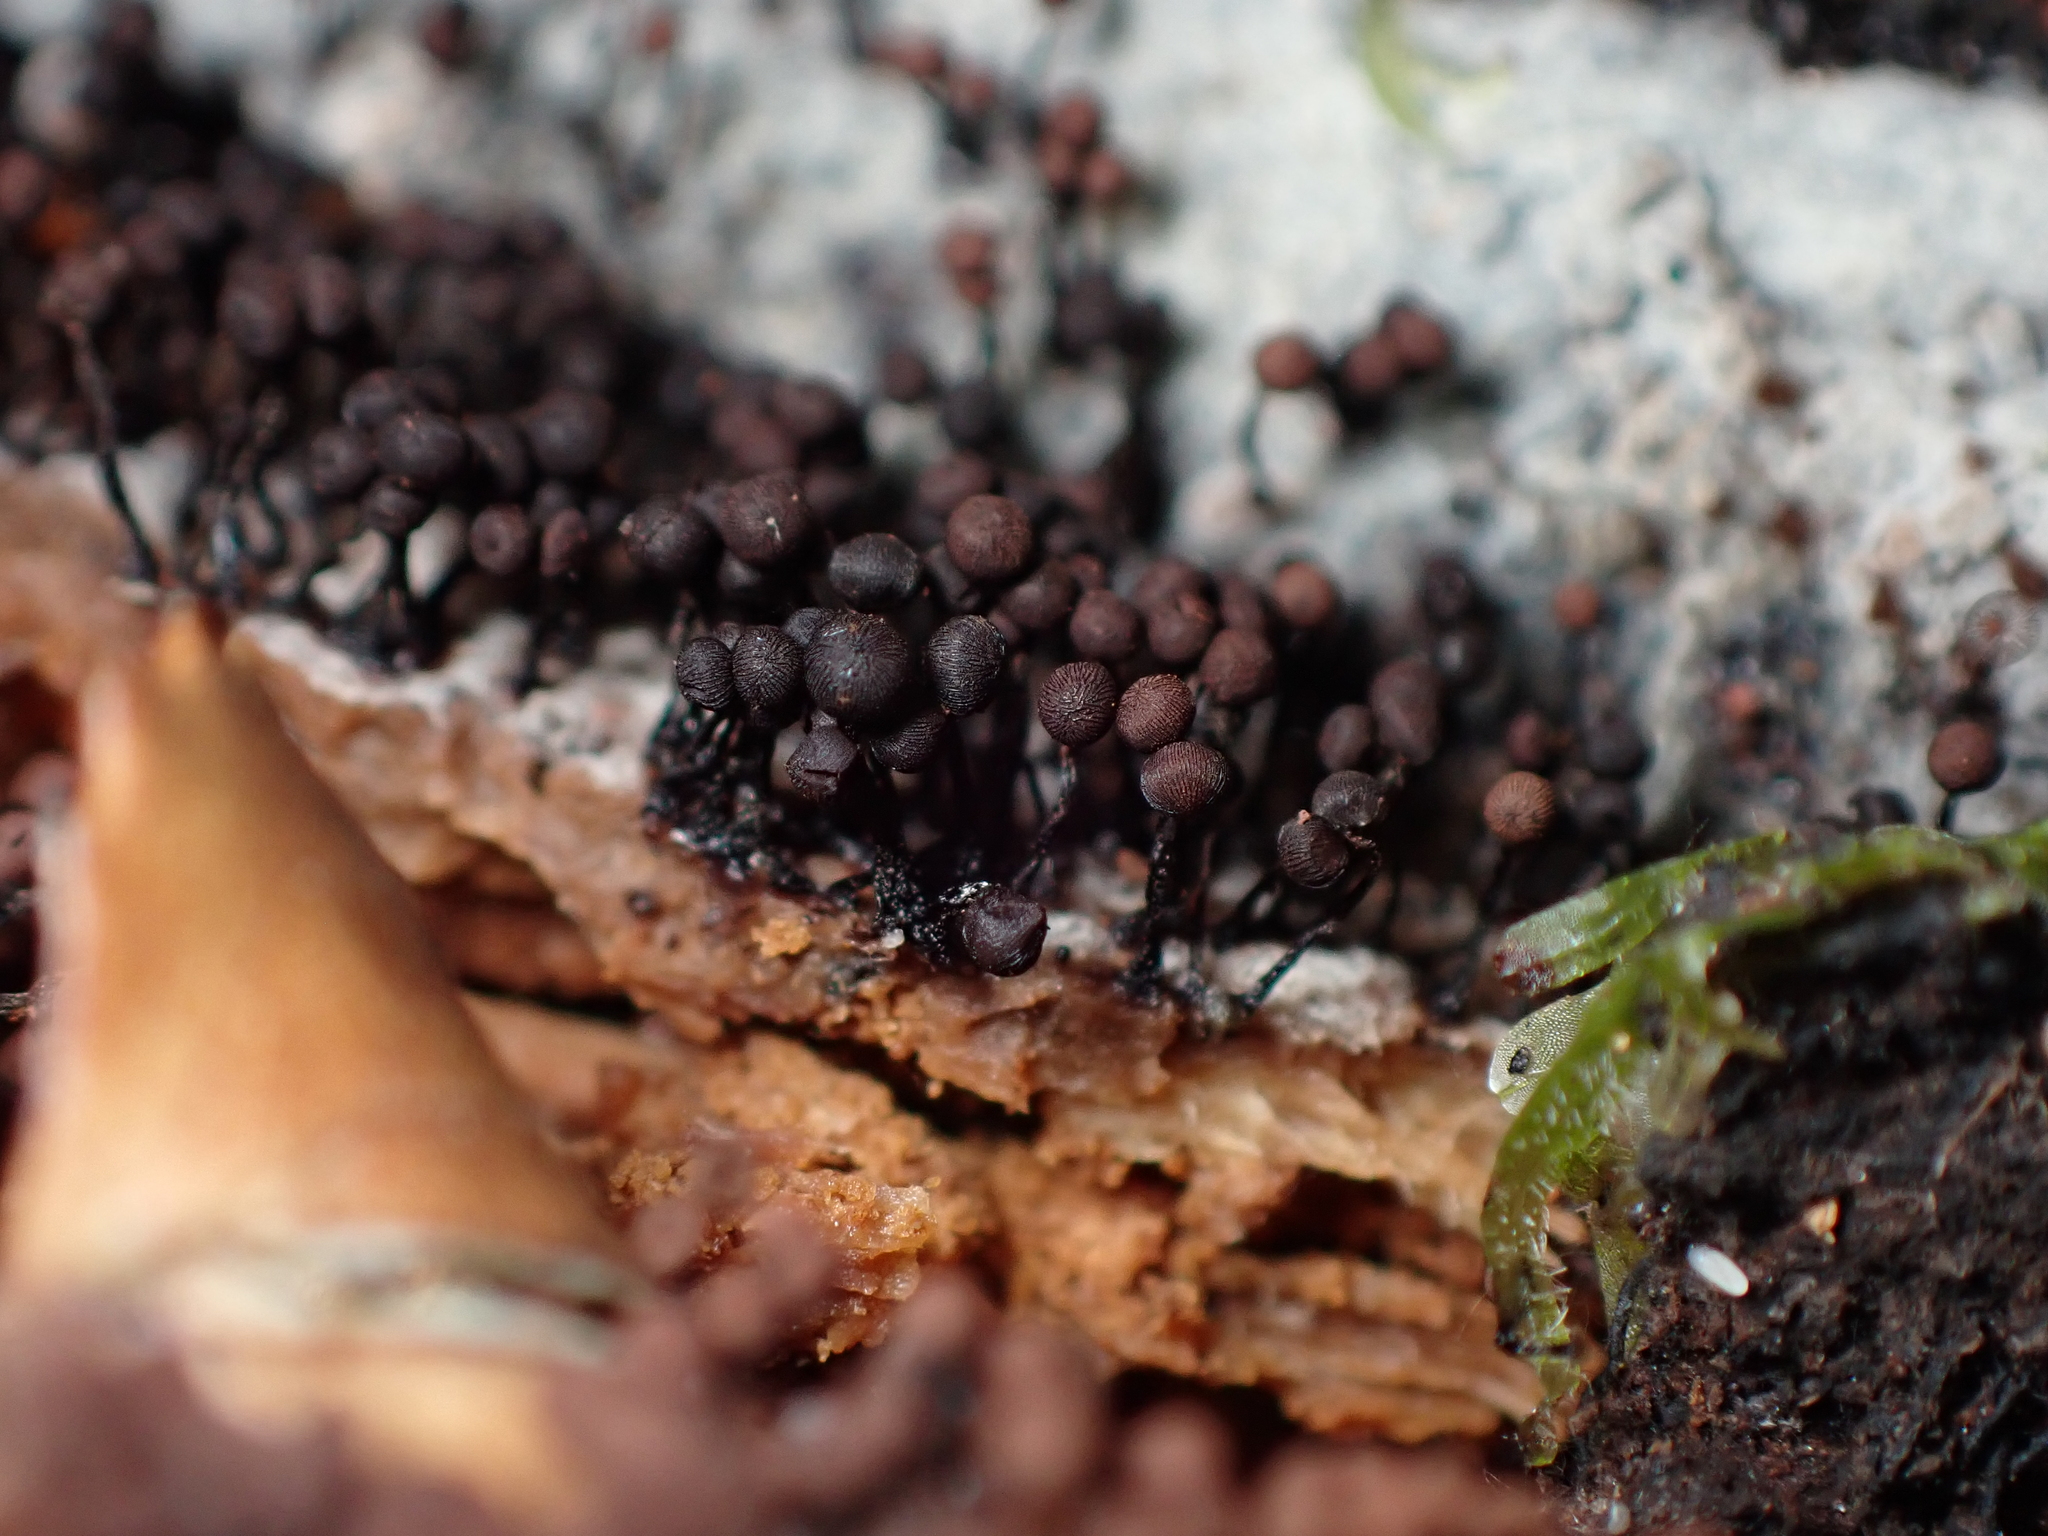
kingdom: Protozoa
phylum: Mycetozoa
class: Myxomycetes
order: Cribrariales
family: Cribrariaceae
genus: Cribraria
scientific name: Cribraria cancellata
